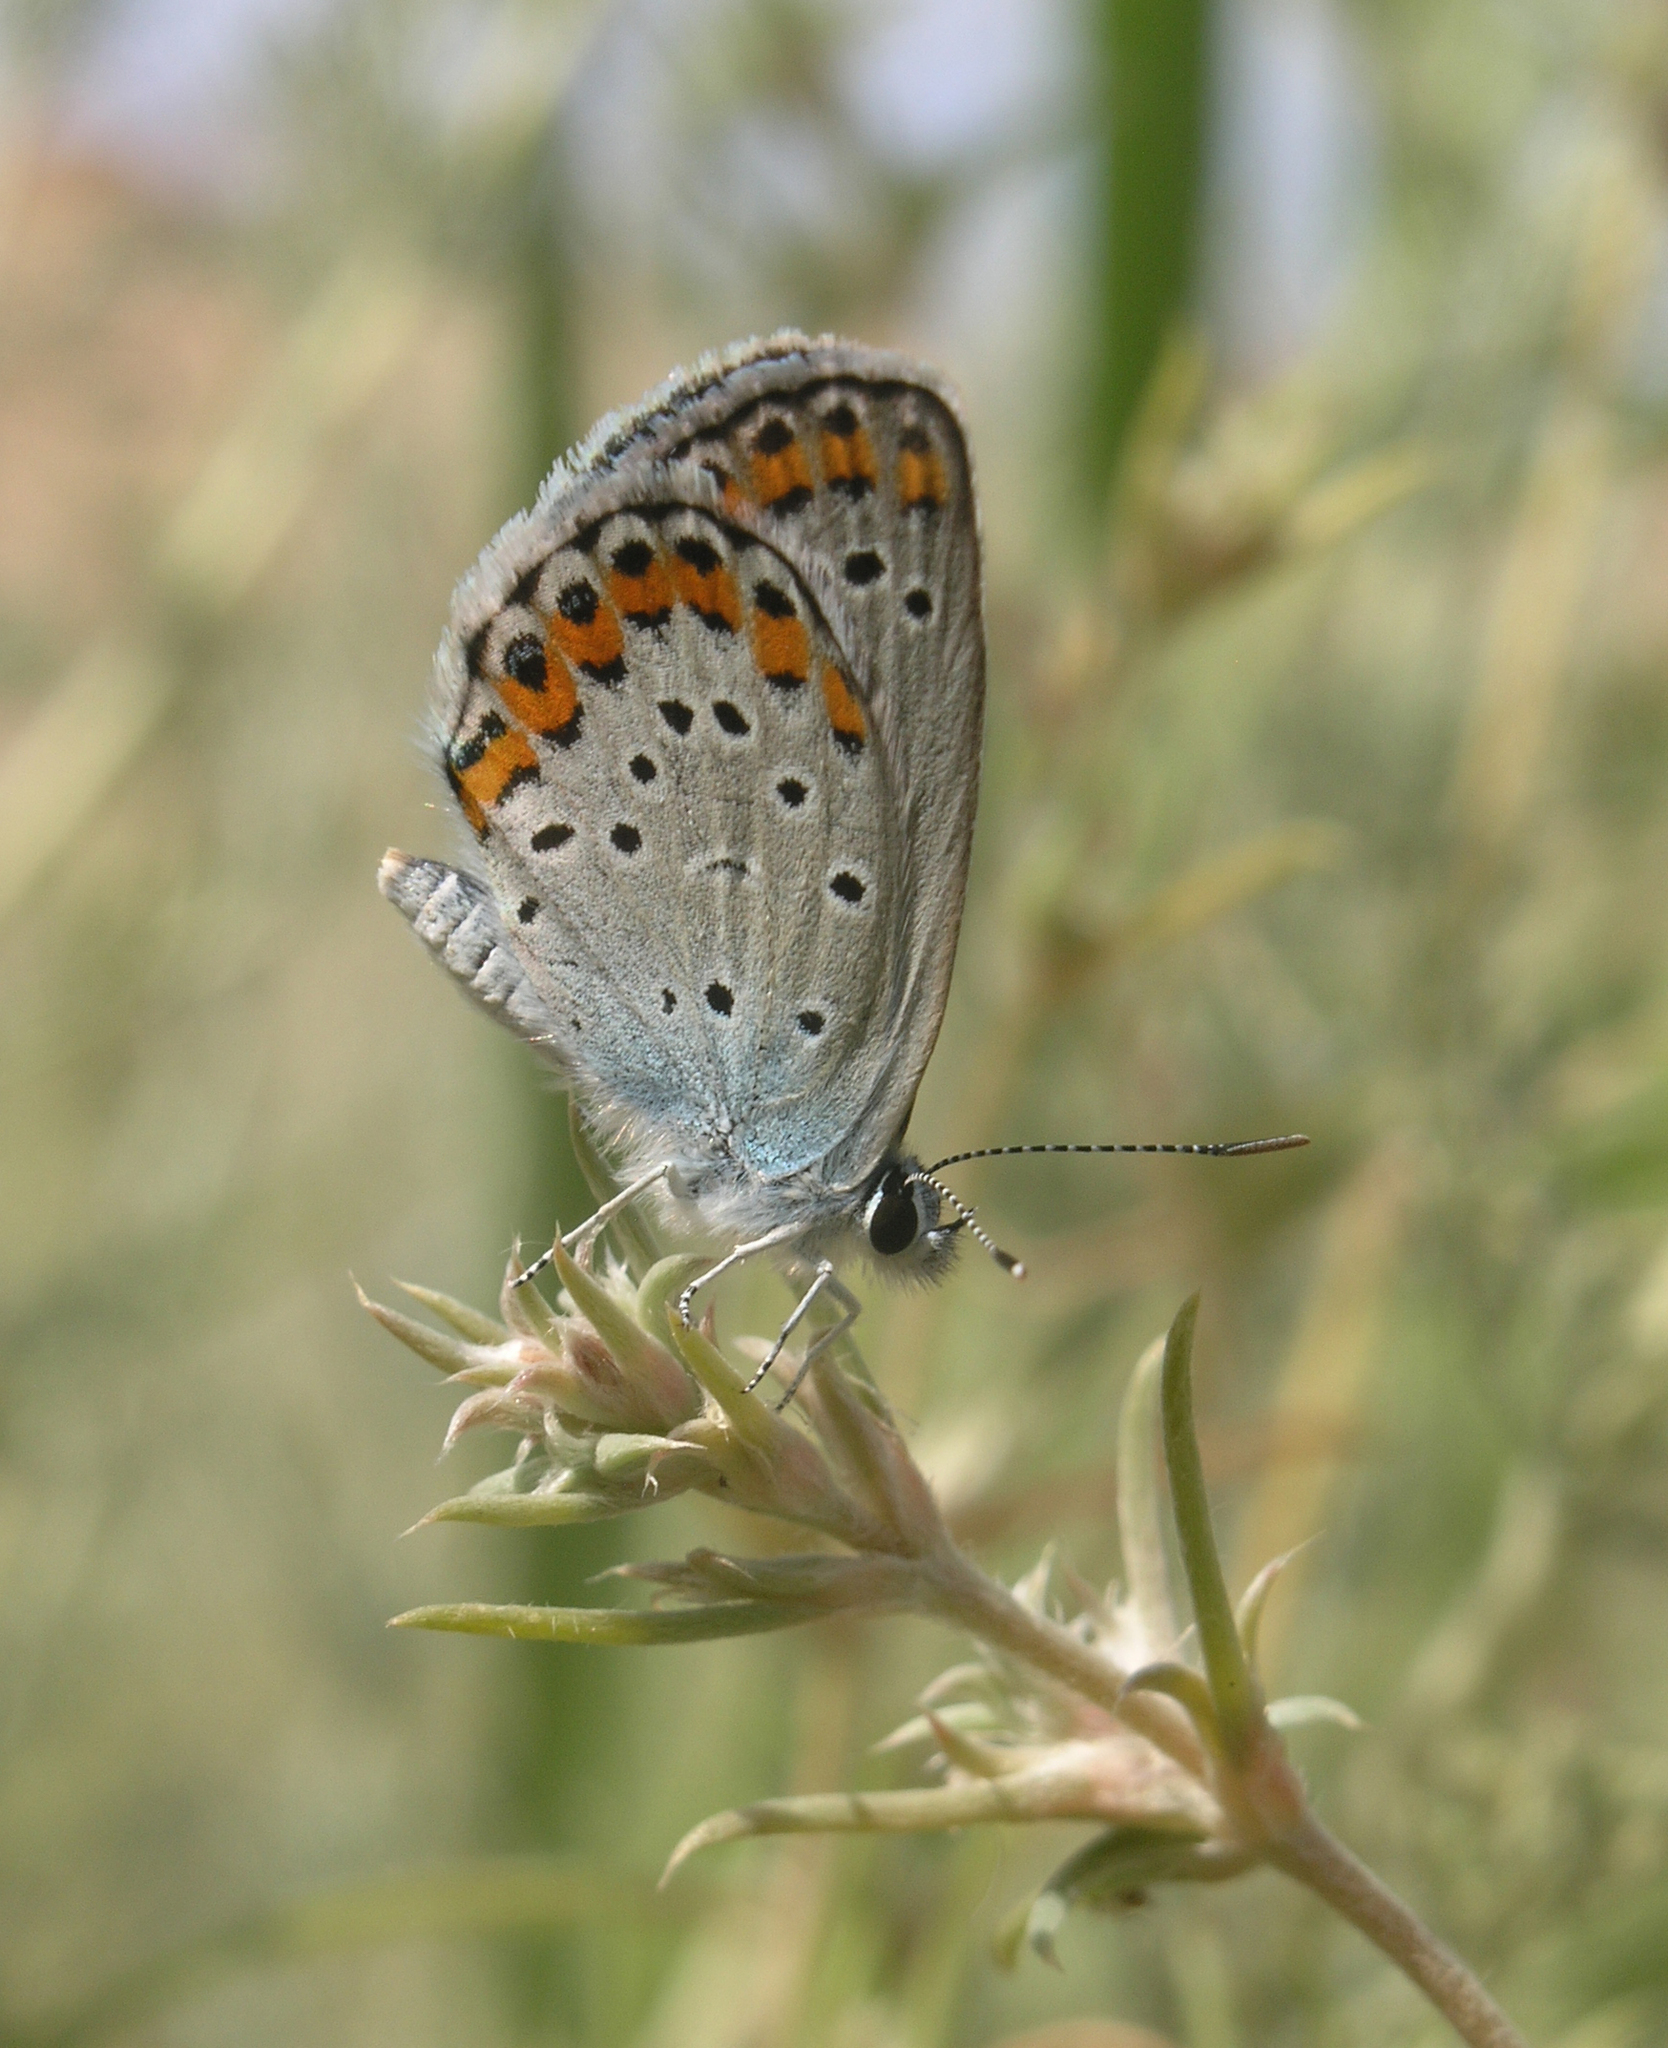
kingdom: Animalia
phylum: Arthropoda
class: Insecta
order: Lepidoptera
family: Lycaenidae
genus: Plebejus
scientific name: Plebejus argyrognomon
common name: Reverdin's blue
